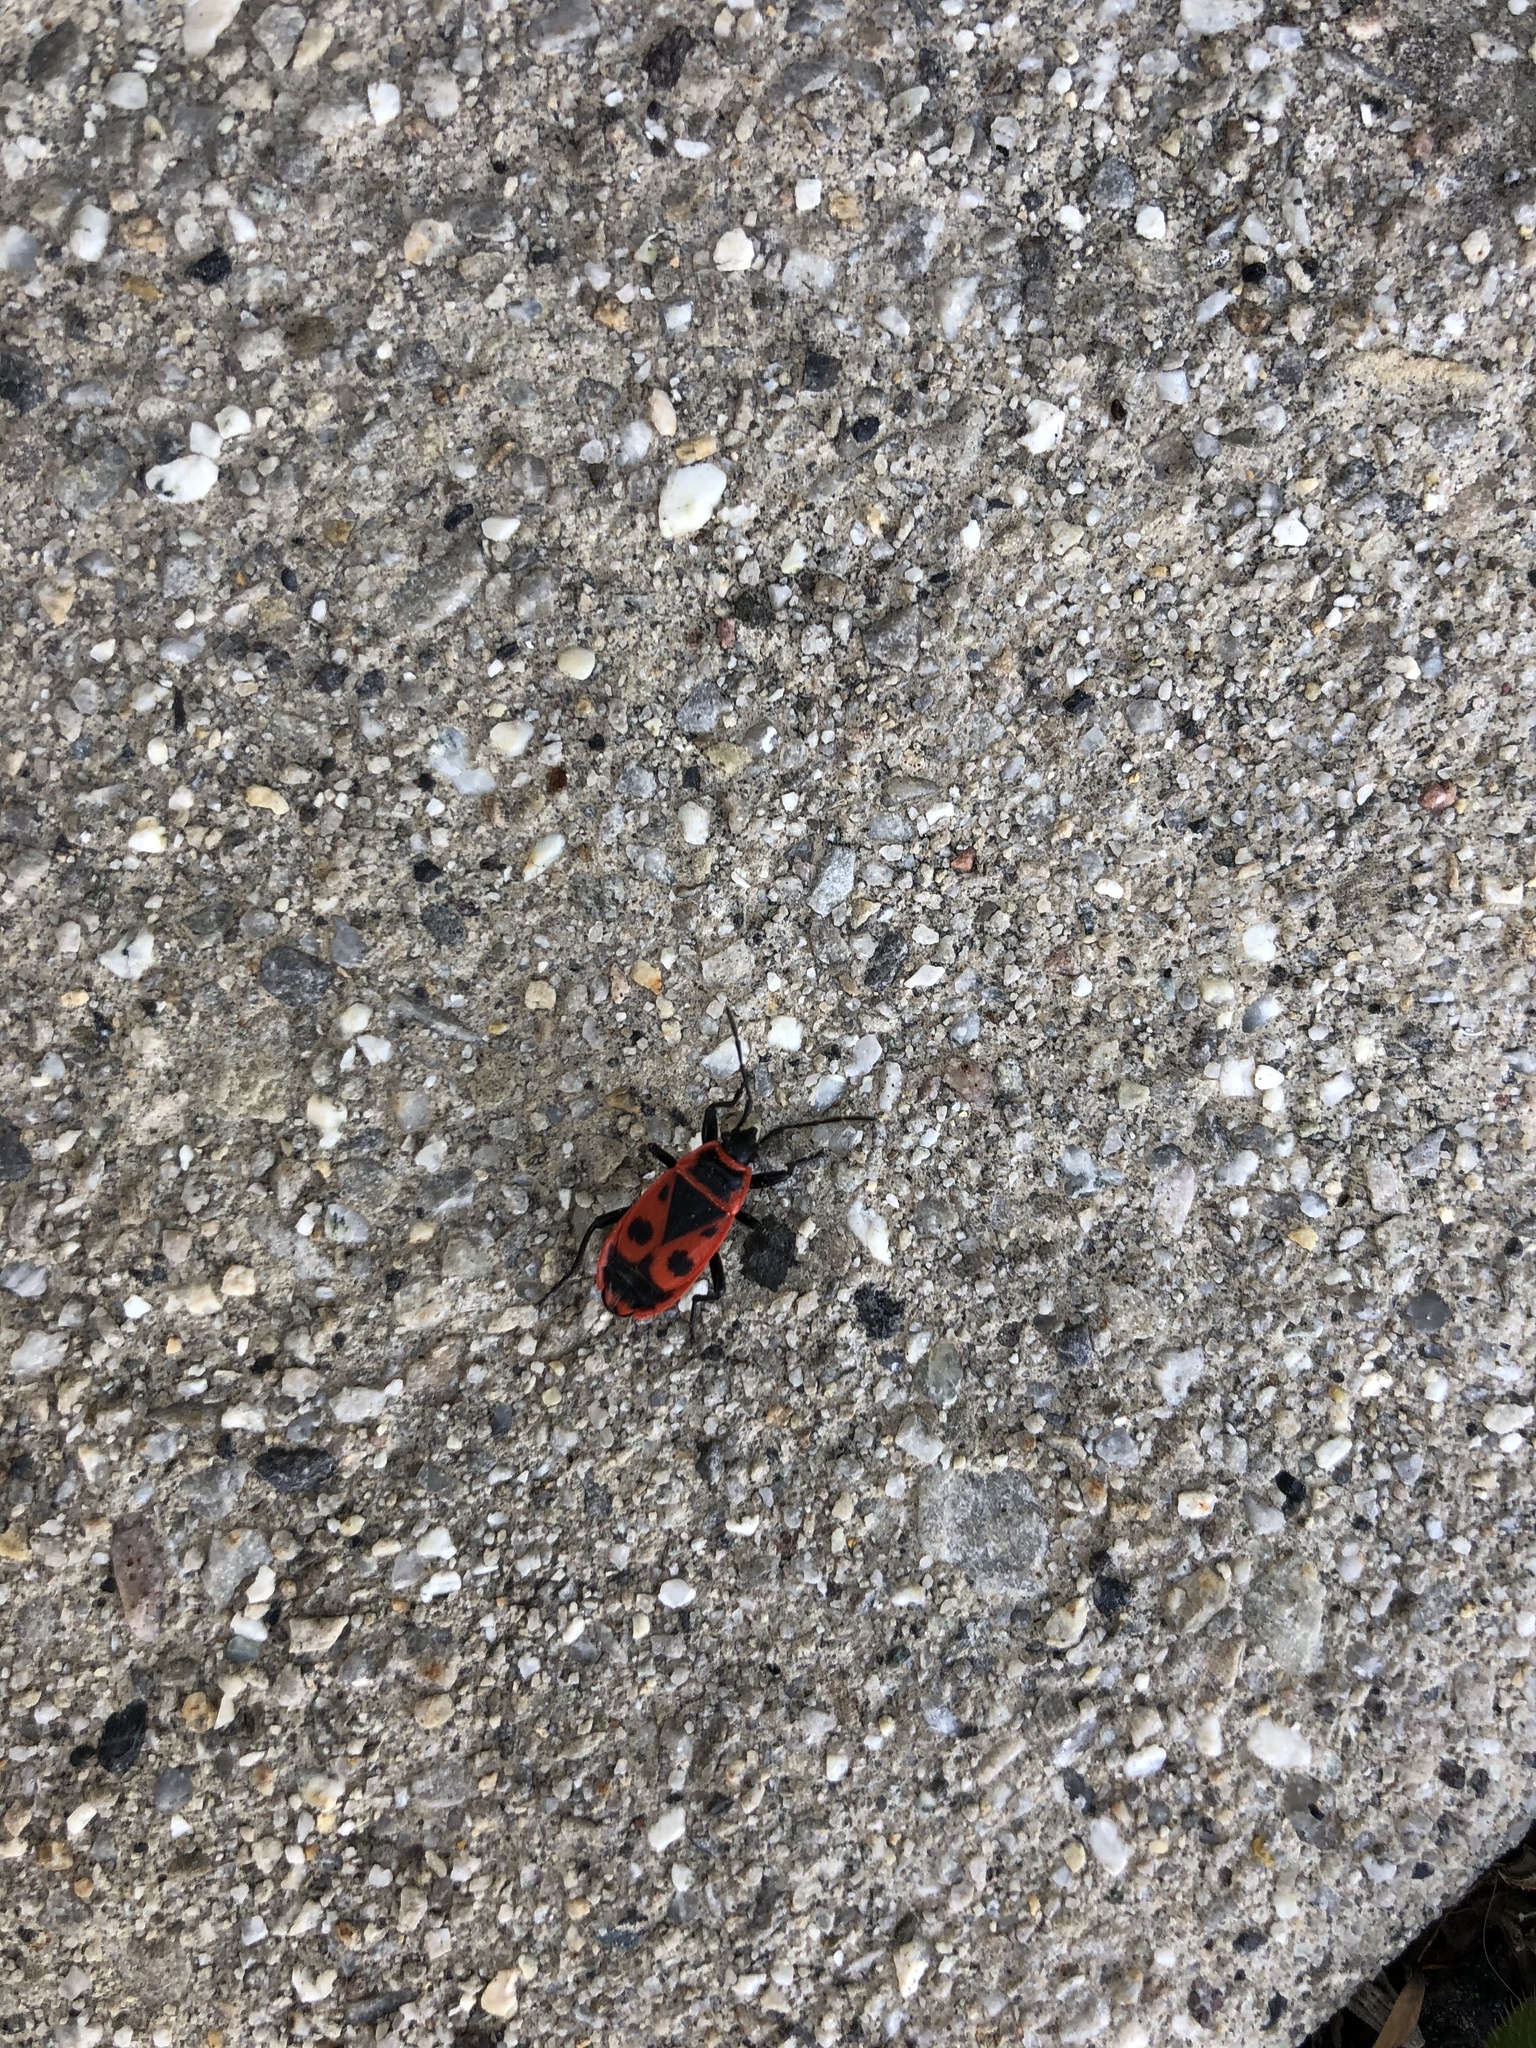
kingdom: Animalia
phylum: Arthropoda
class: Insecta
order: Hemiptera
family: Pyrrhocoridae
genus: Pyrrhocoris
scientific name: Pyrrhocoris apterus
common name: Firebug
